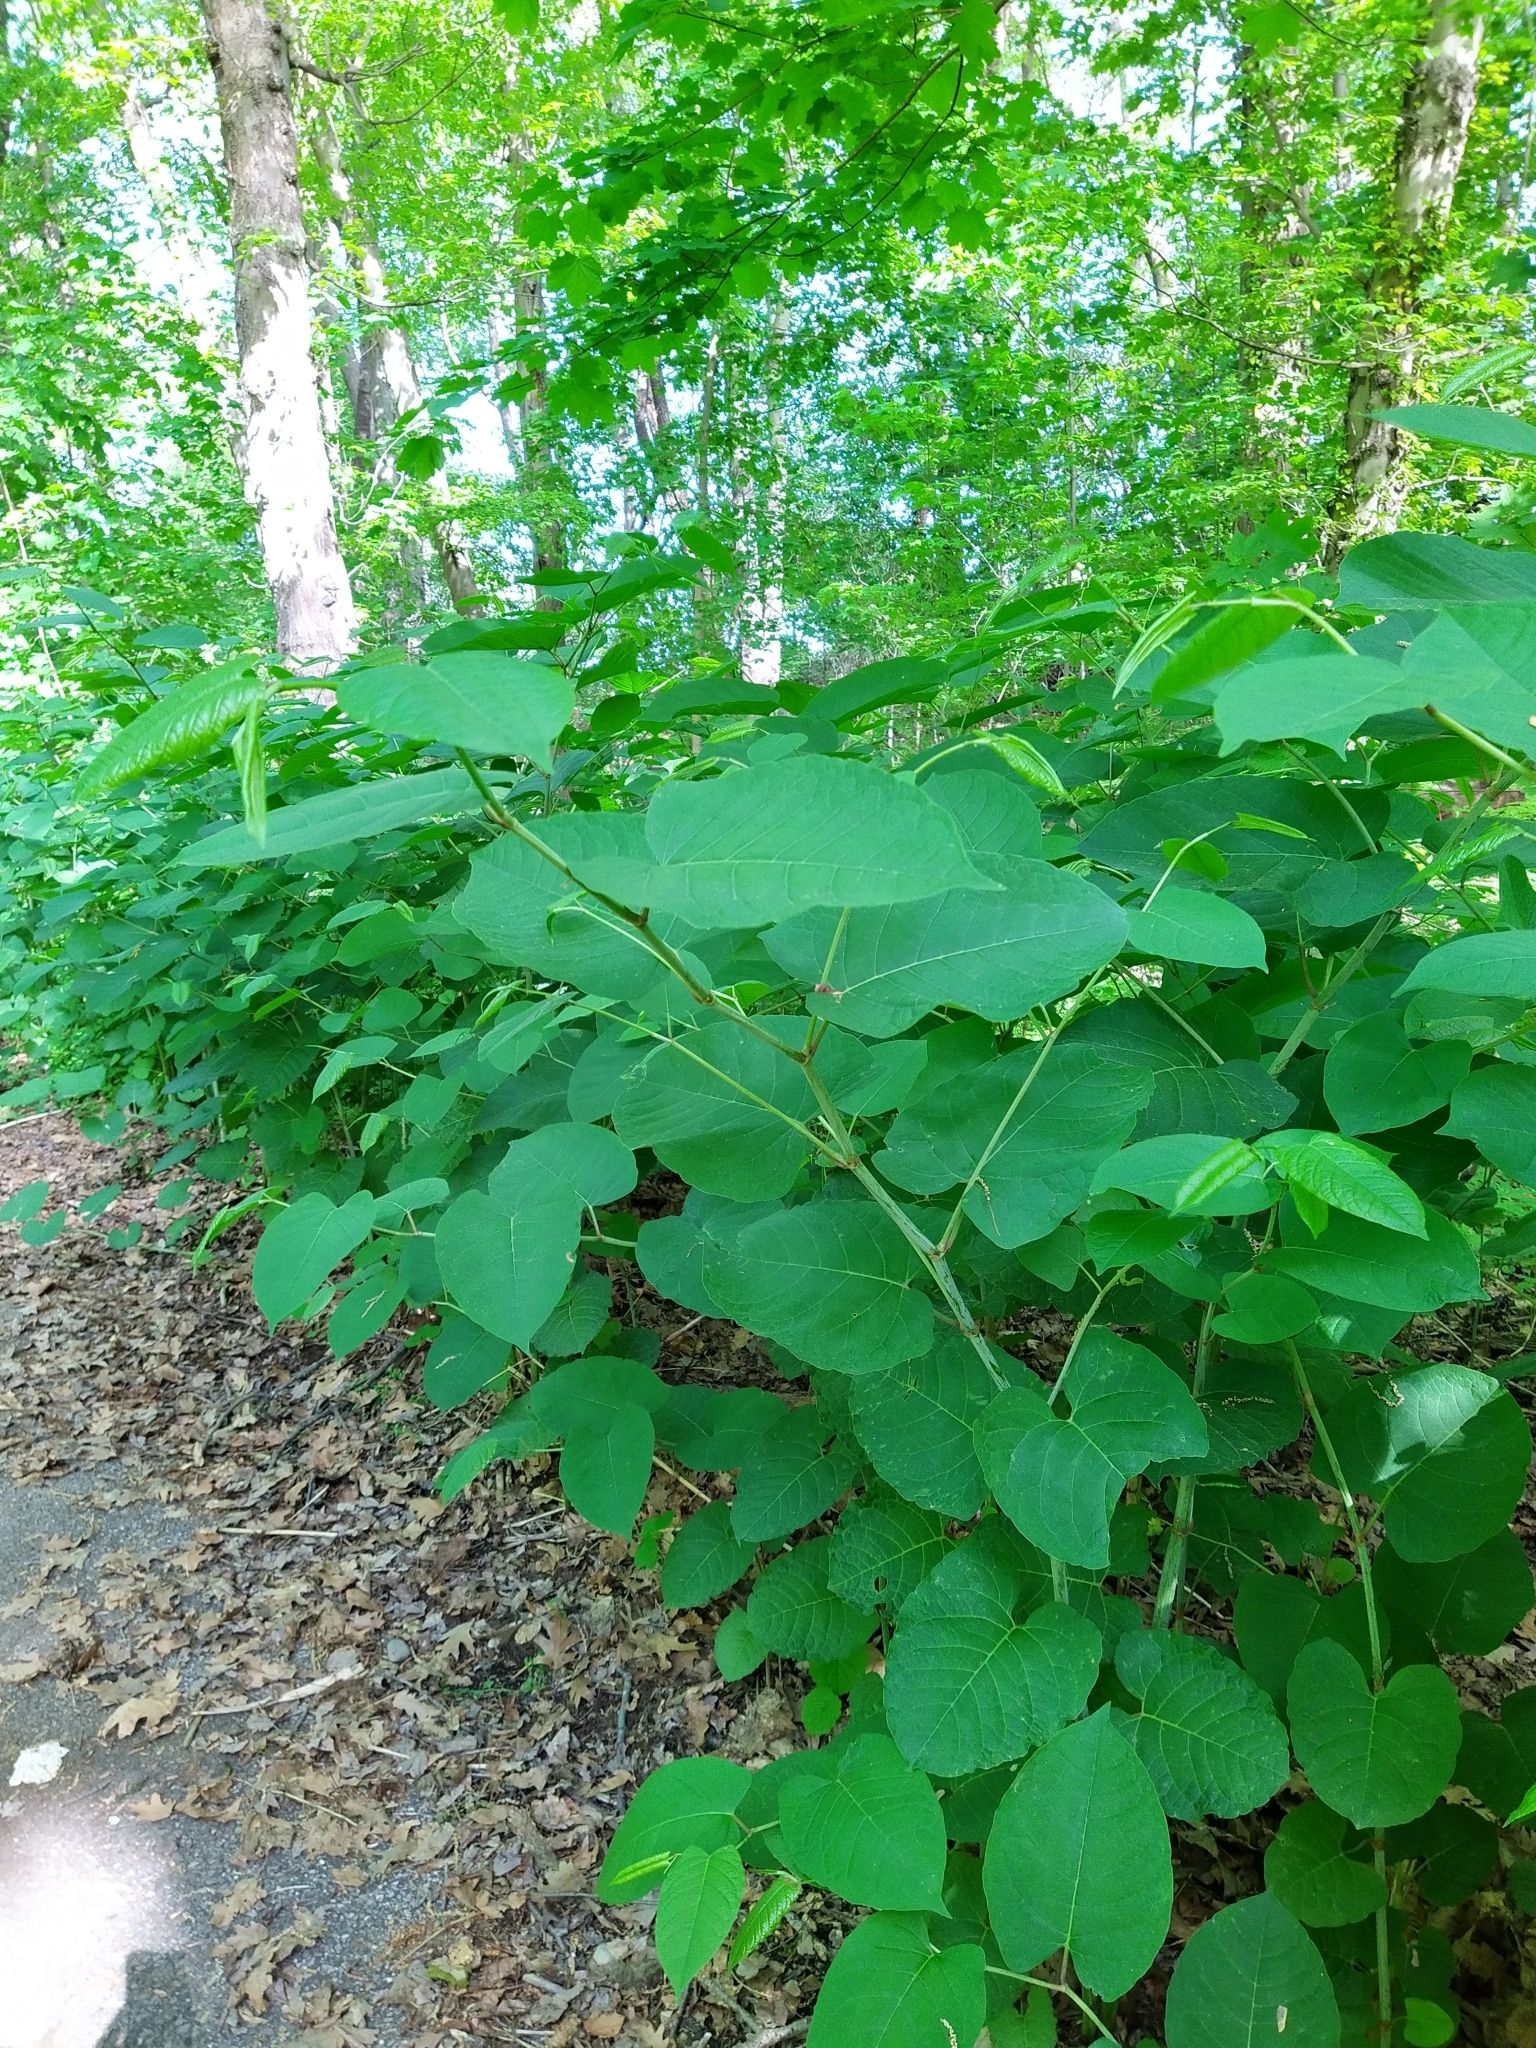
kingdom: Plantae
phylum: Tracheophyta
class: Magnoliopsida
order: Caryophyllales
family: Polygonaceae
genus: Reynoutria
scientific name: Reynoutria japonica
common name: Japanese knotweed
